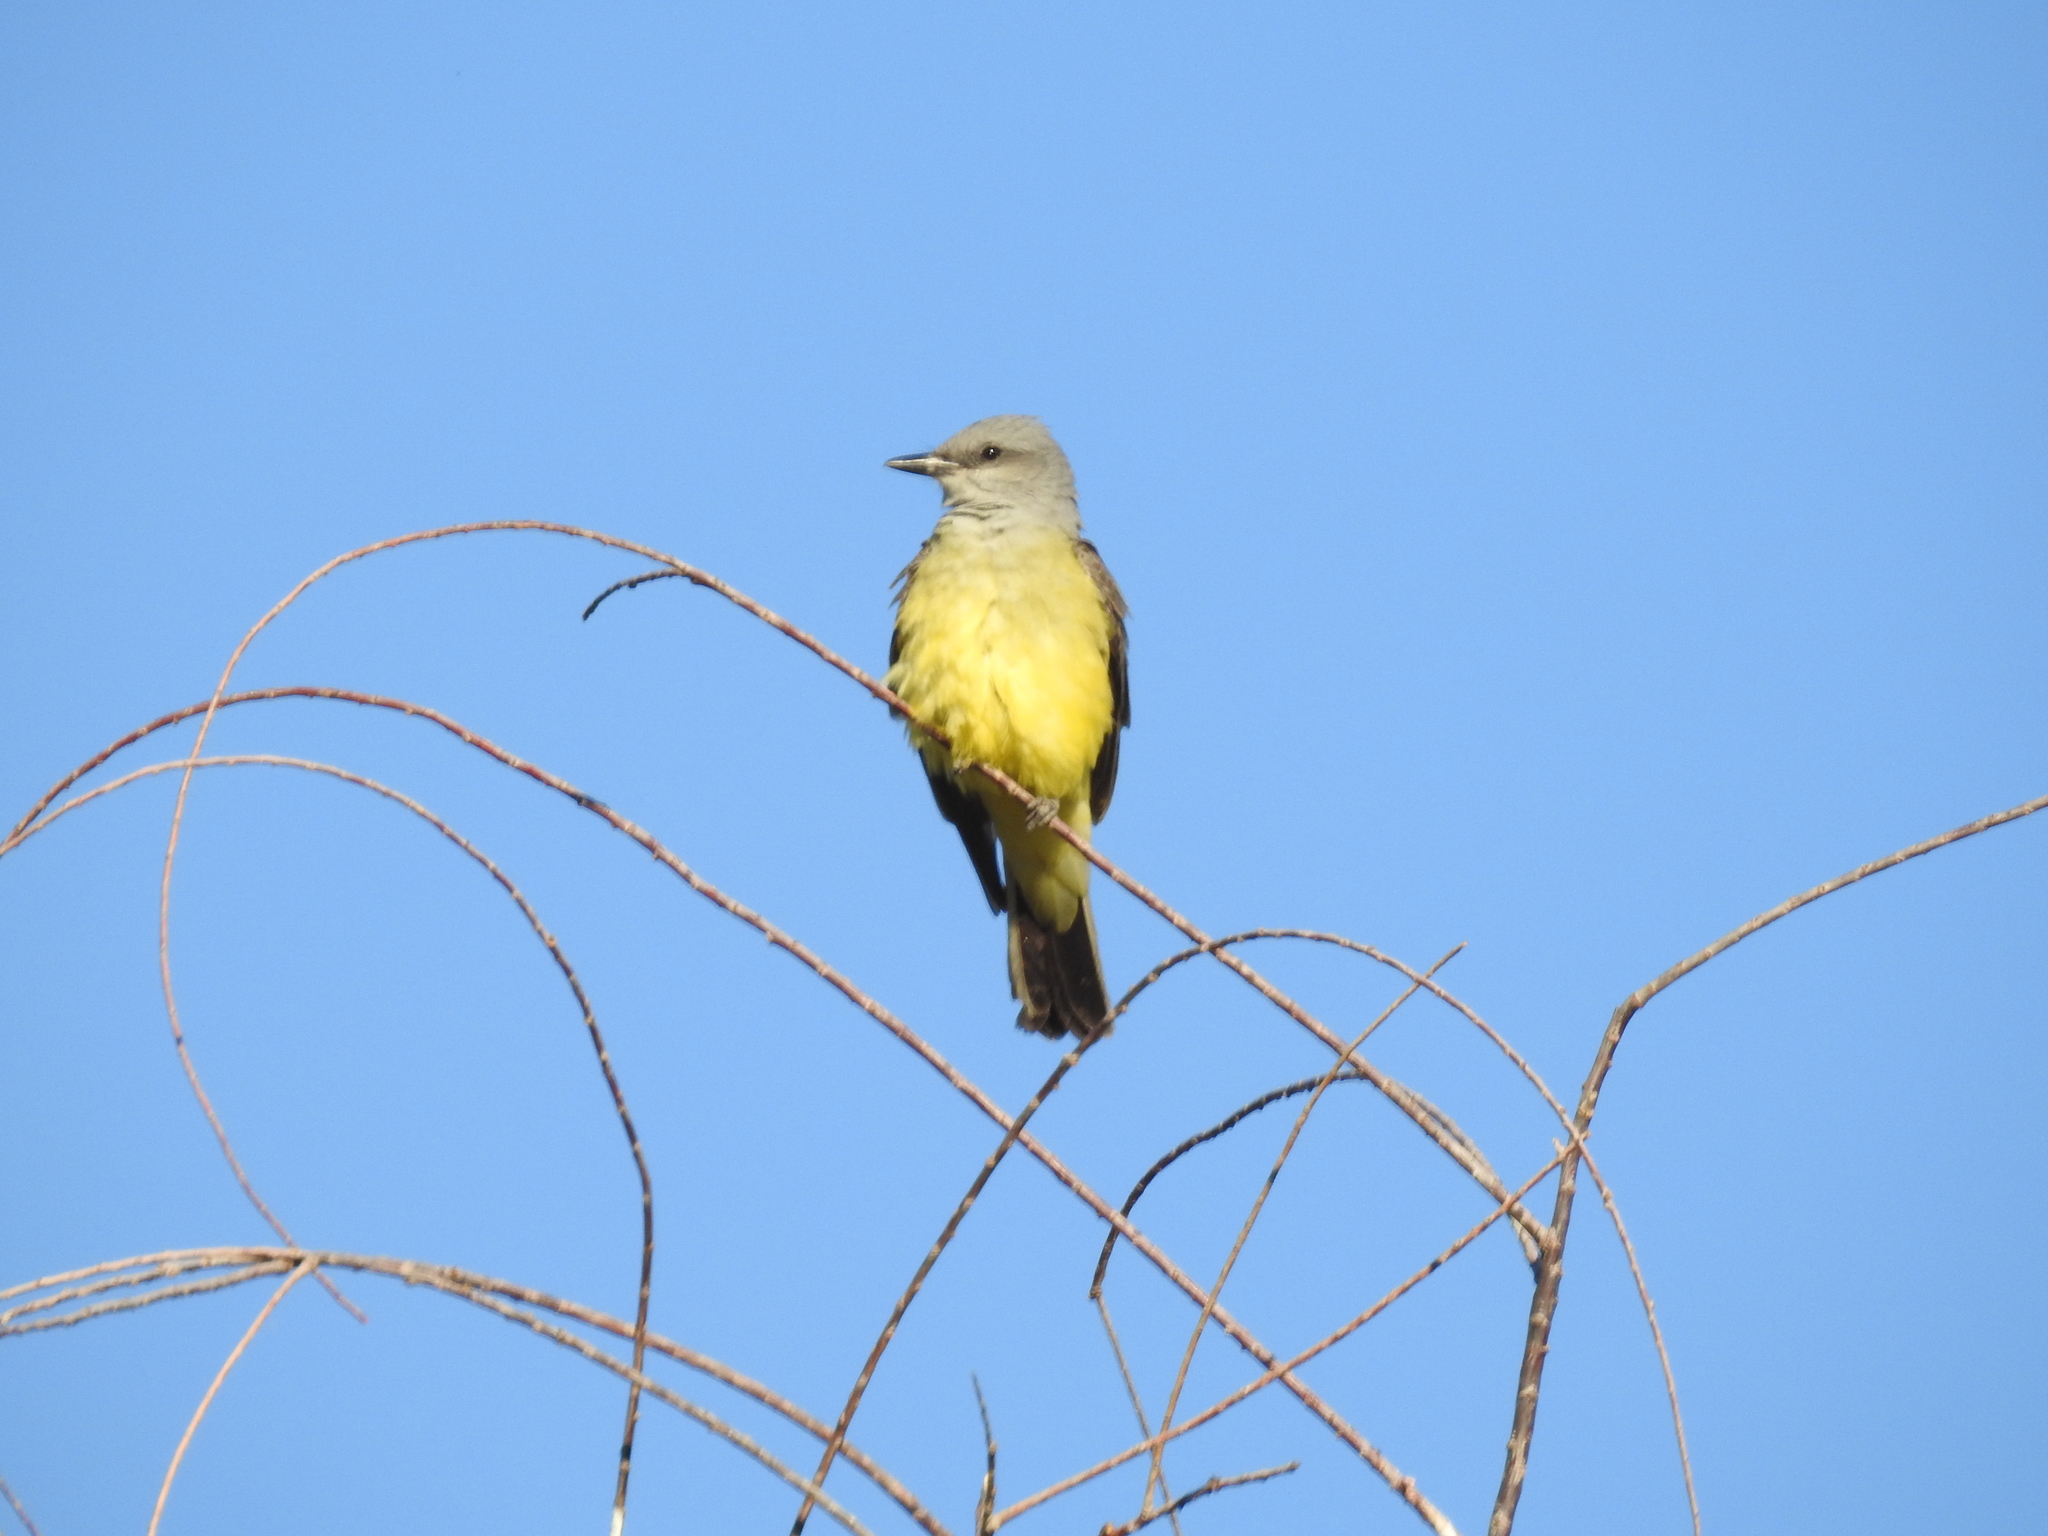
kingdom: Animalia
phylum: Chordata
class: Aves
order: Passeriformes
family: Tyrannidae
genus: Tyrannus
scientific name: Tyrannus verticalis
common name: Western kingbird
